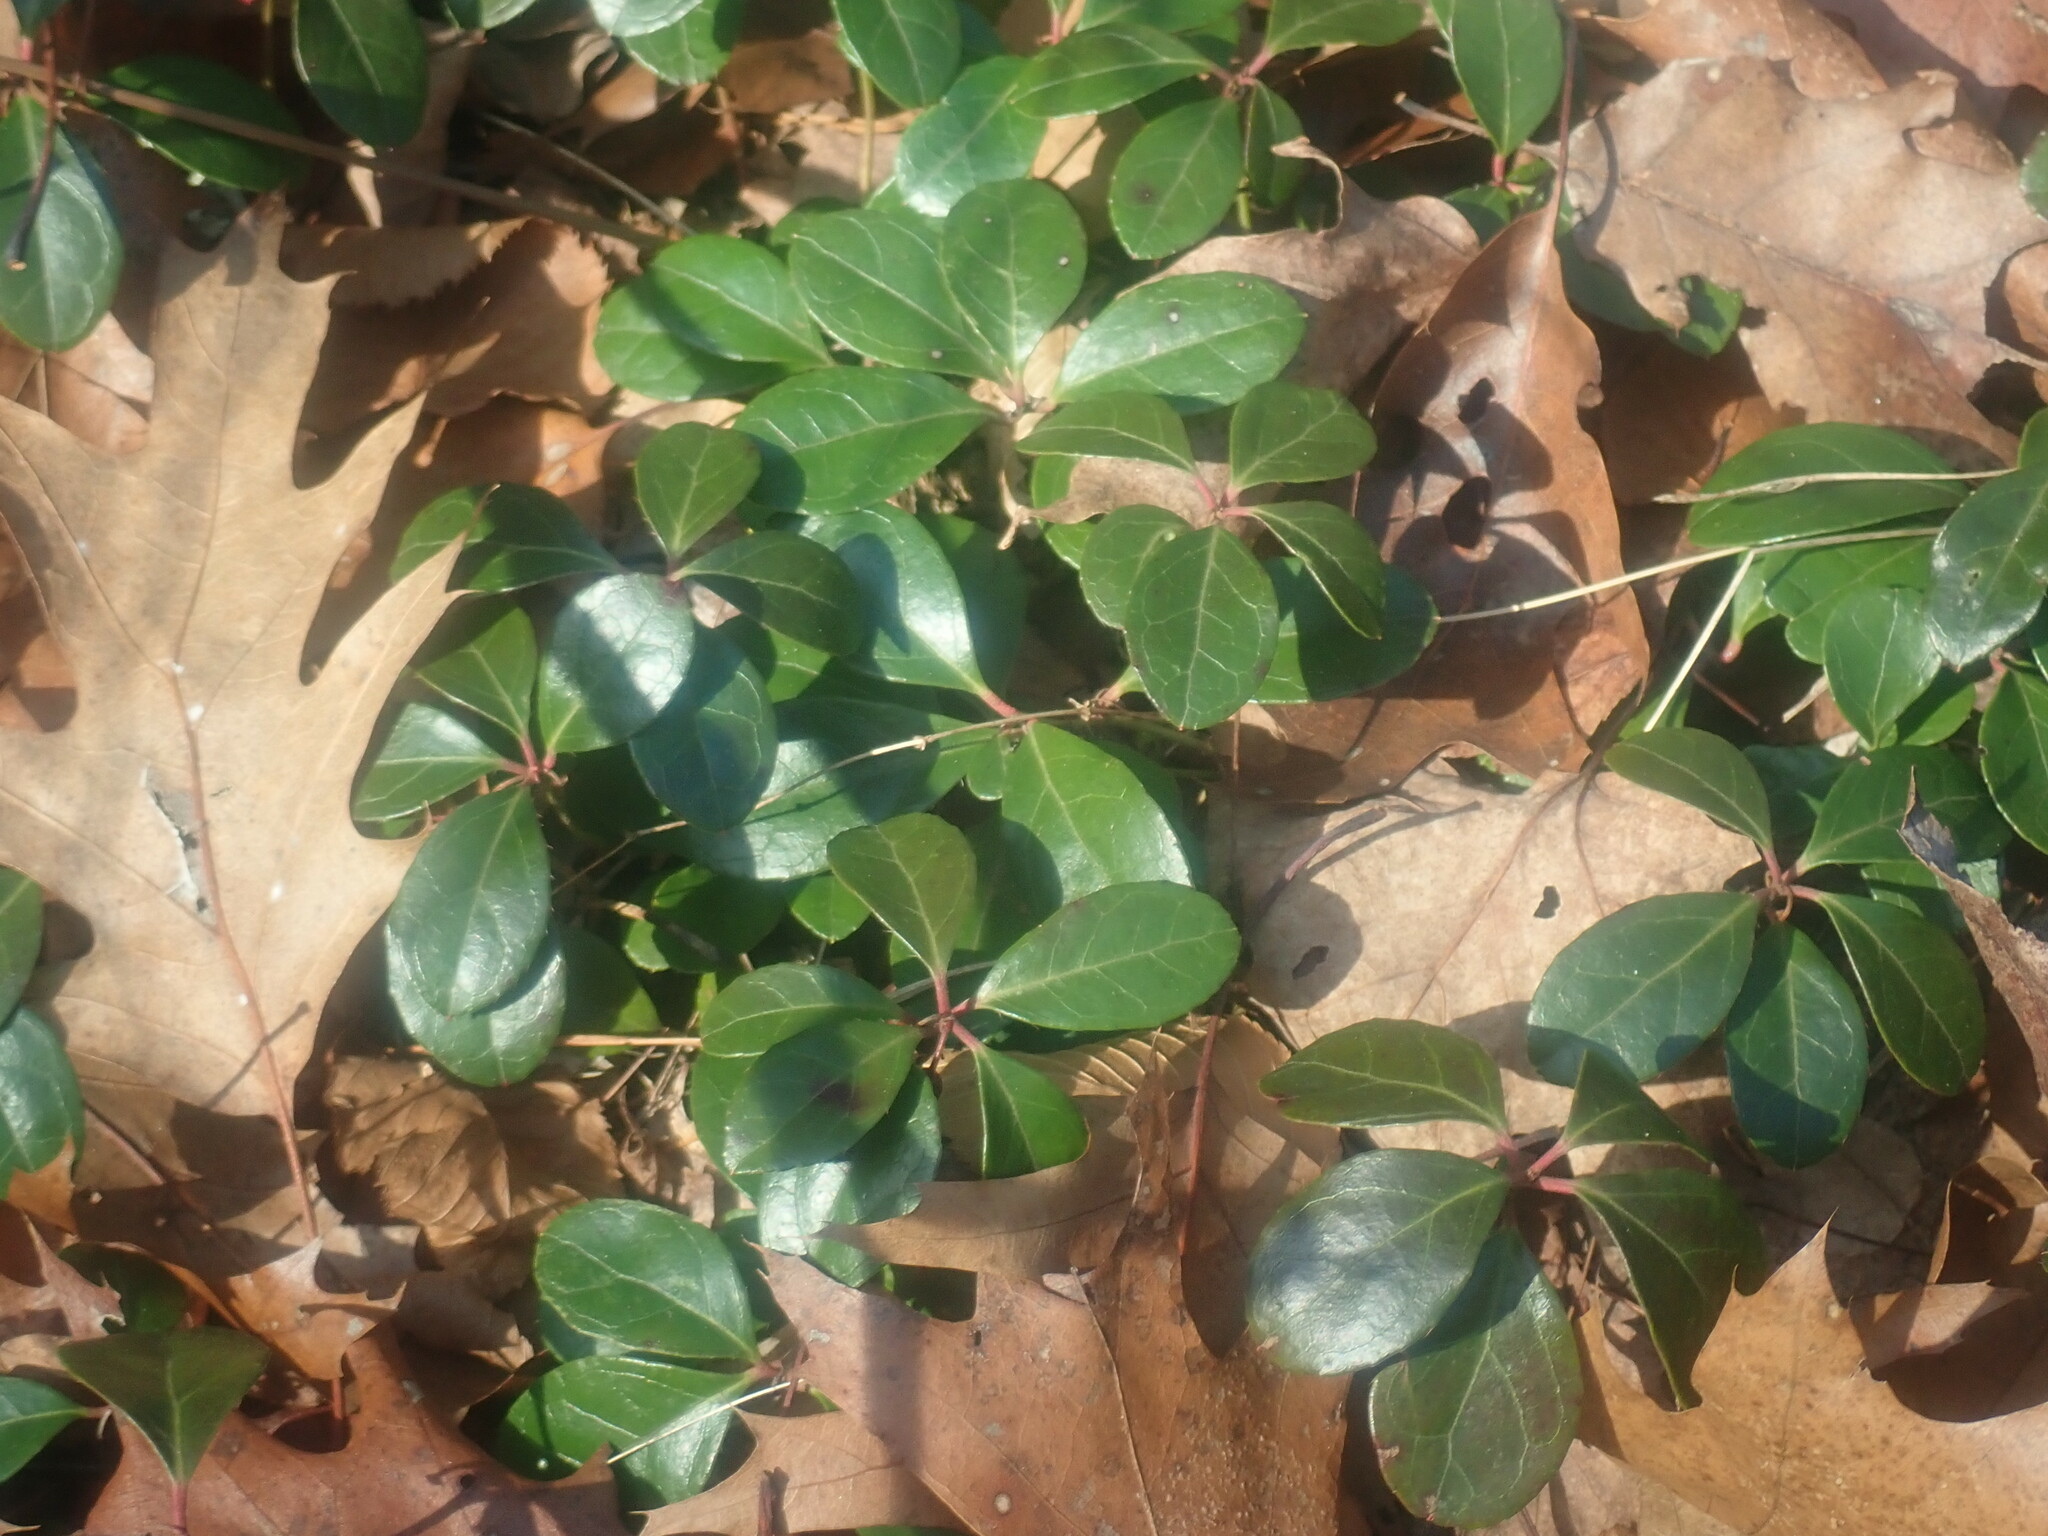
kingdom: Plantae
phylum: Tracheophyta
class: Magnoliopsida
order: Ericales
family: Ericaceae
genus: Gaultheria
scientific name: Gaultheria procumbens
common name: Checkerberry
